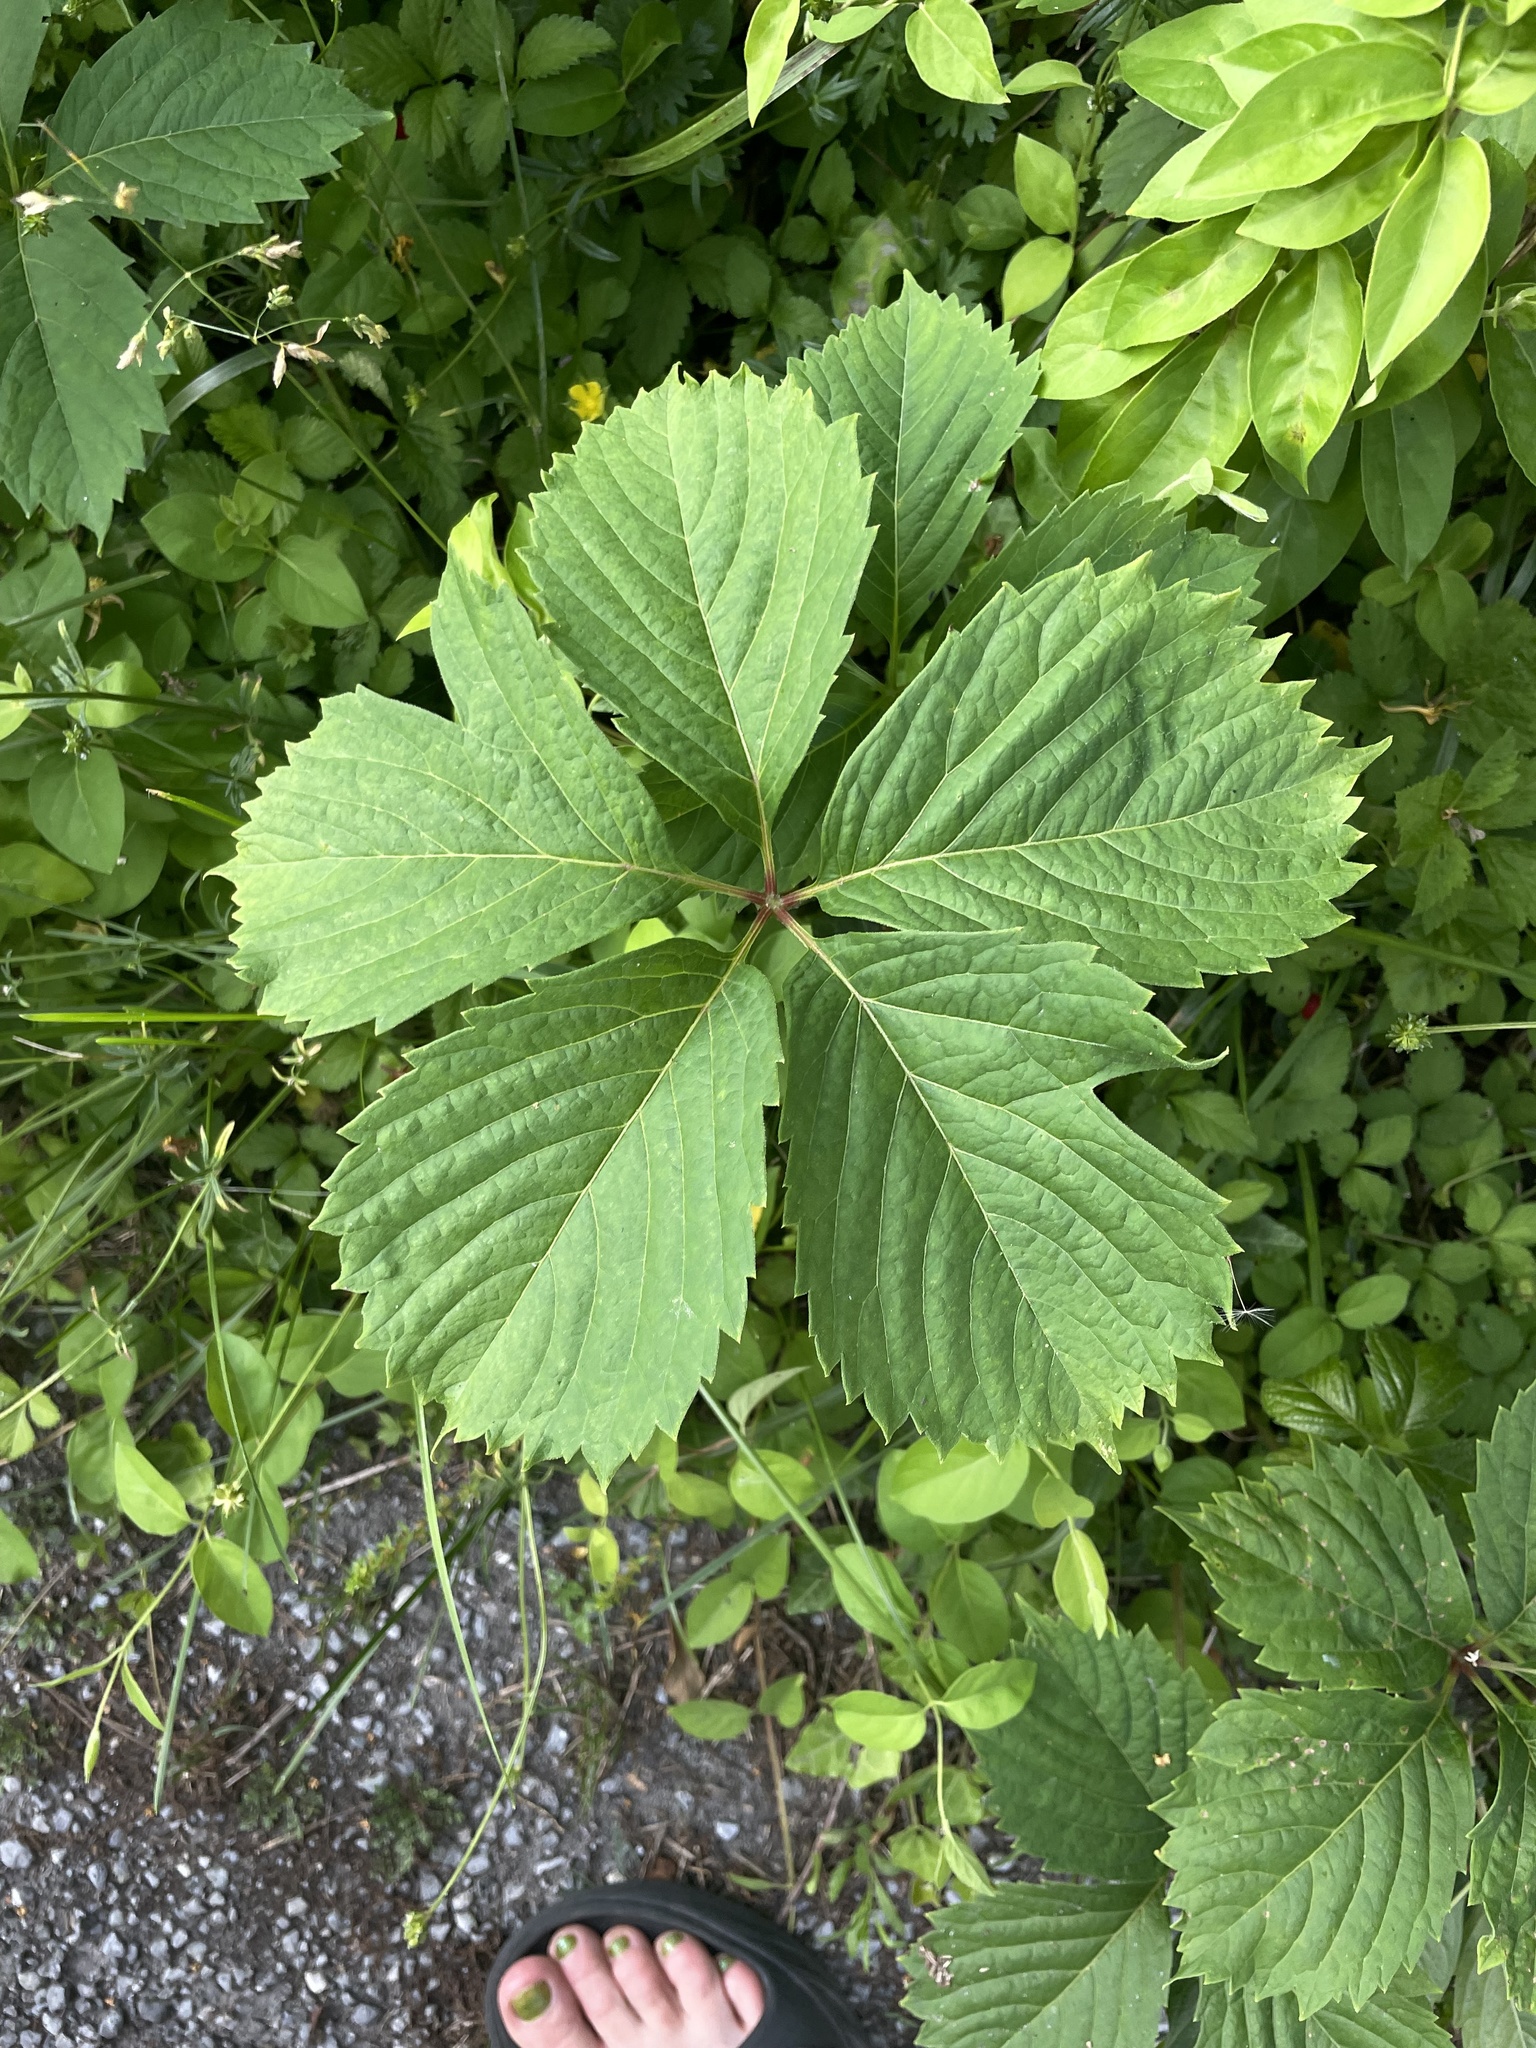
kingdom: Plantae
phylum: Tracheophyta
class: Magnoliopsida
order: Vitales
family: Vitaceae
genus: Parthenocissus
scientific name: Parthenocissus quinquefolia
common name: Virginia-creeper
